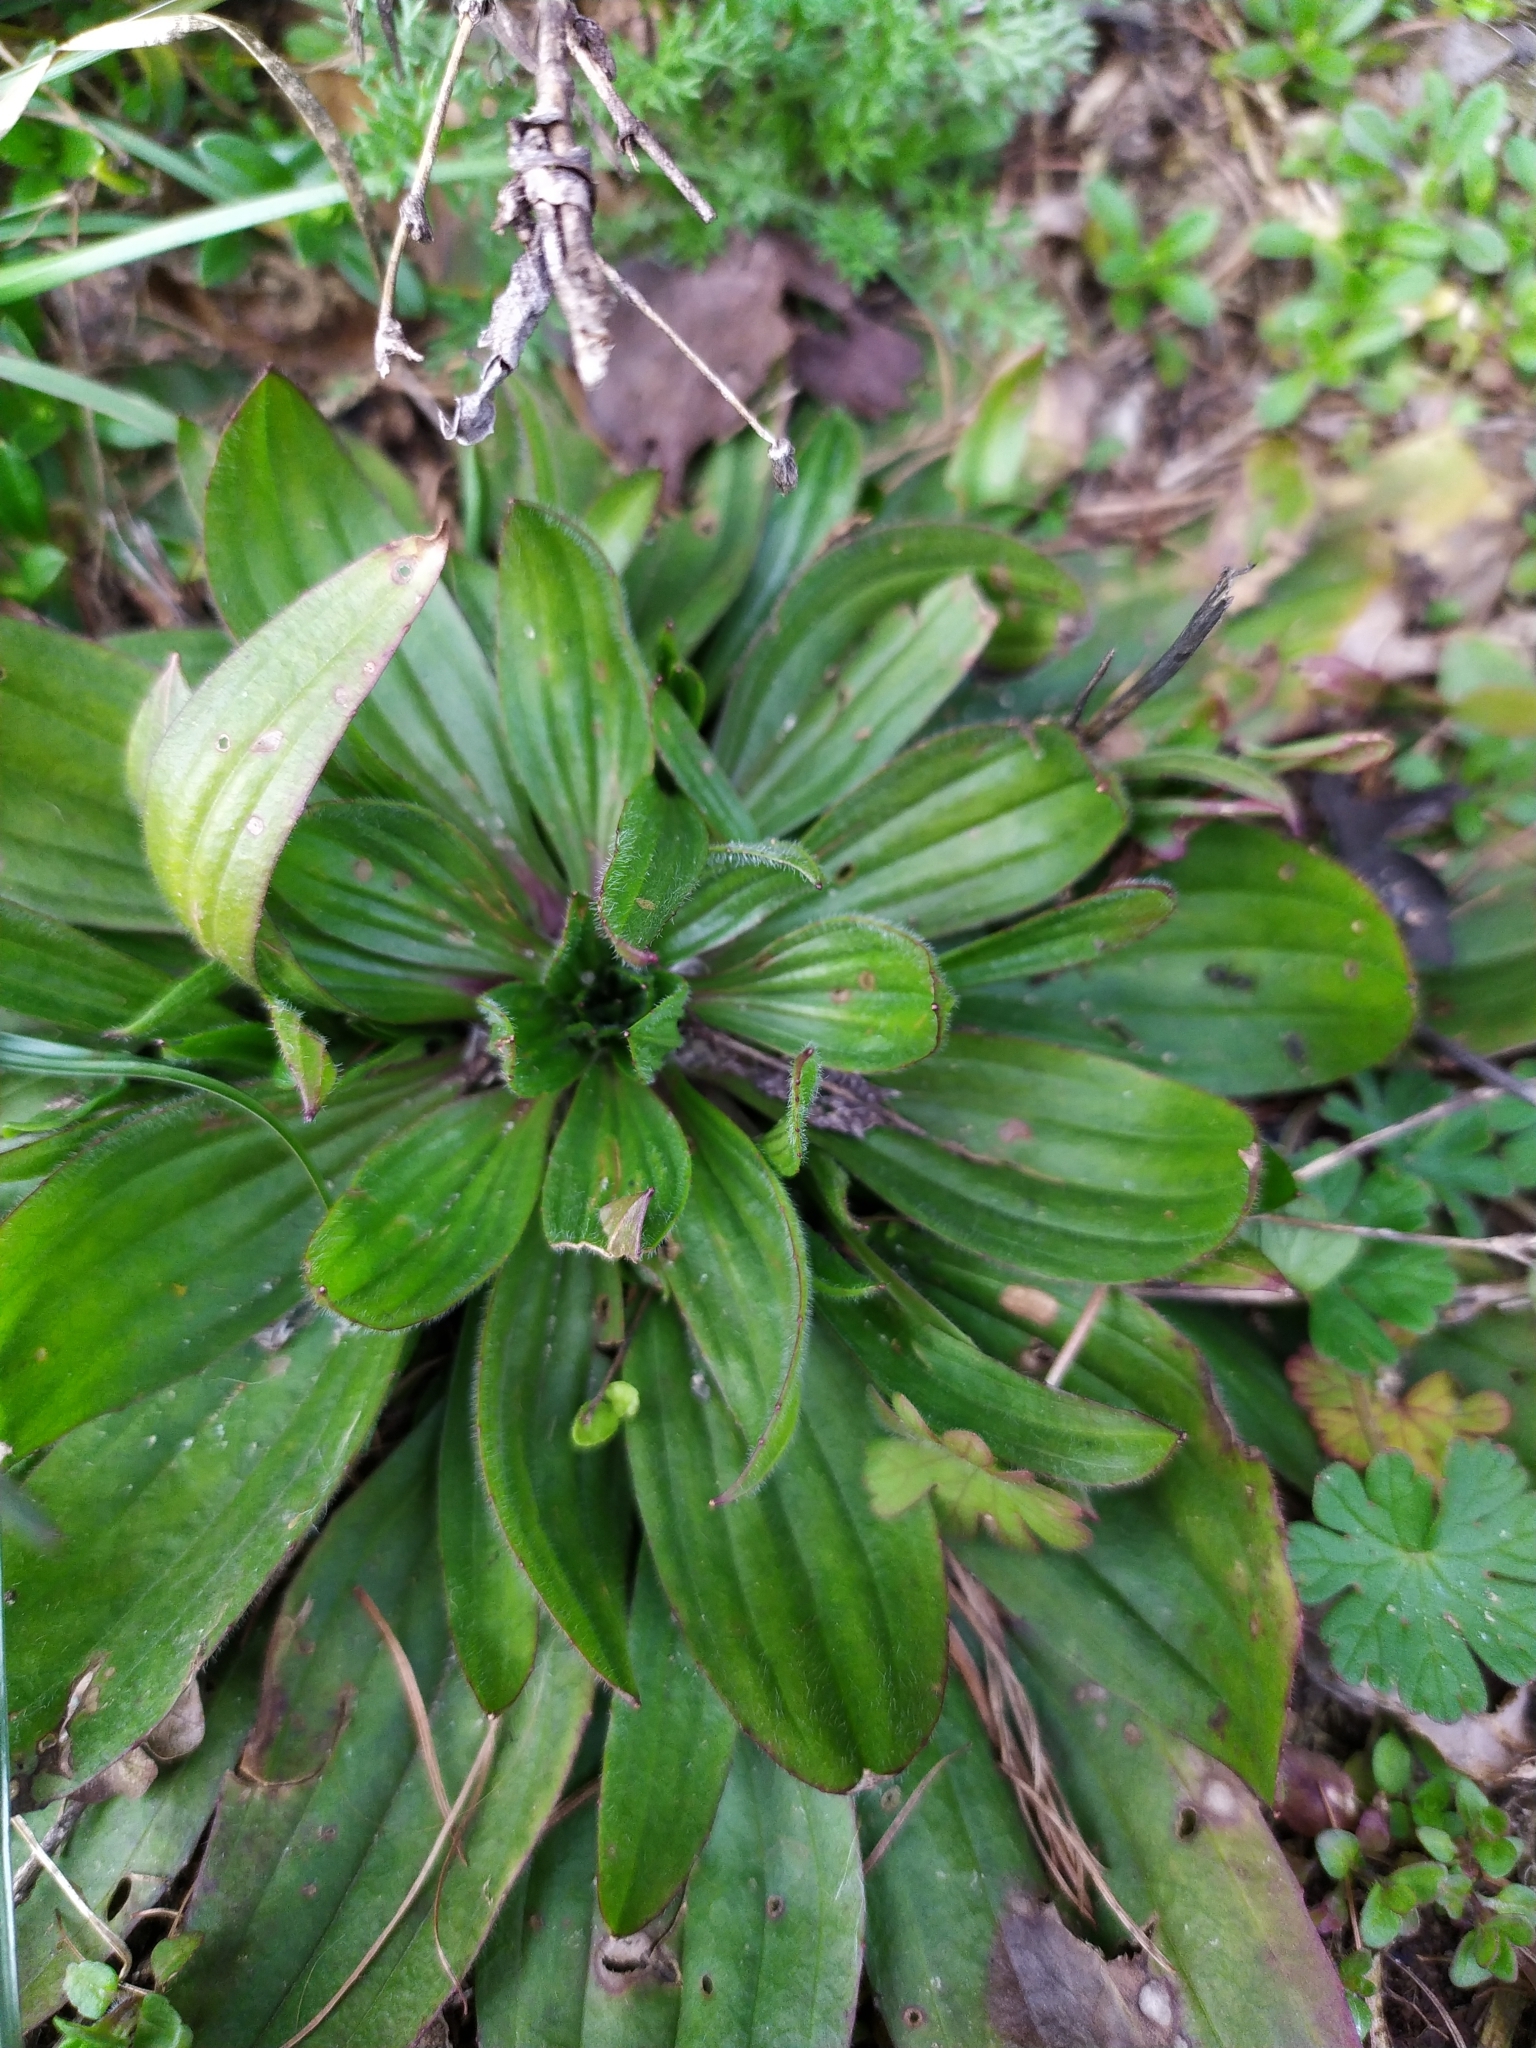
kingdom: Plantae
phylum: Tracheophyta
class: Magnoliopsida
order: Lamiales
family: Plantaginaceae
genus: Plantago
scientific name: Plantago lanceolata
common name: Ribwort plantain
